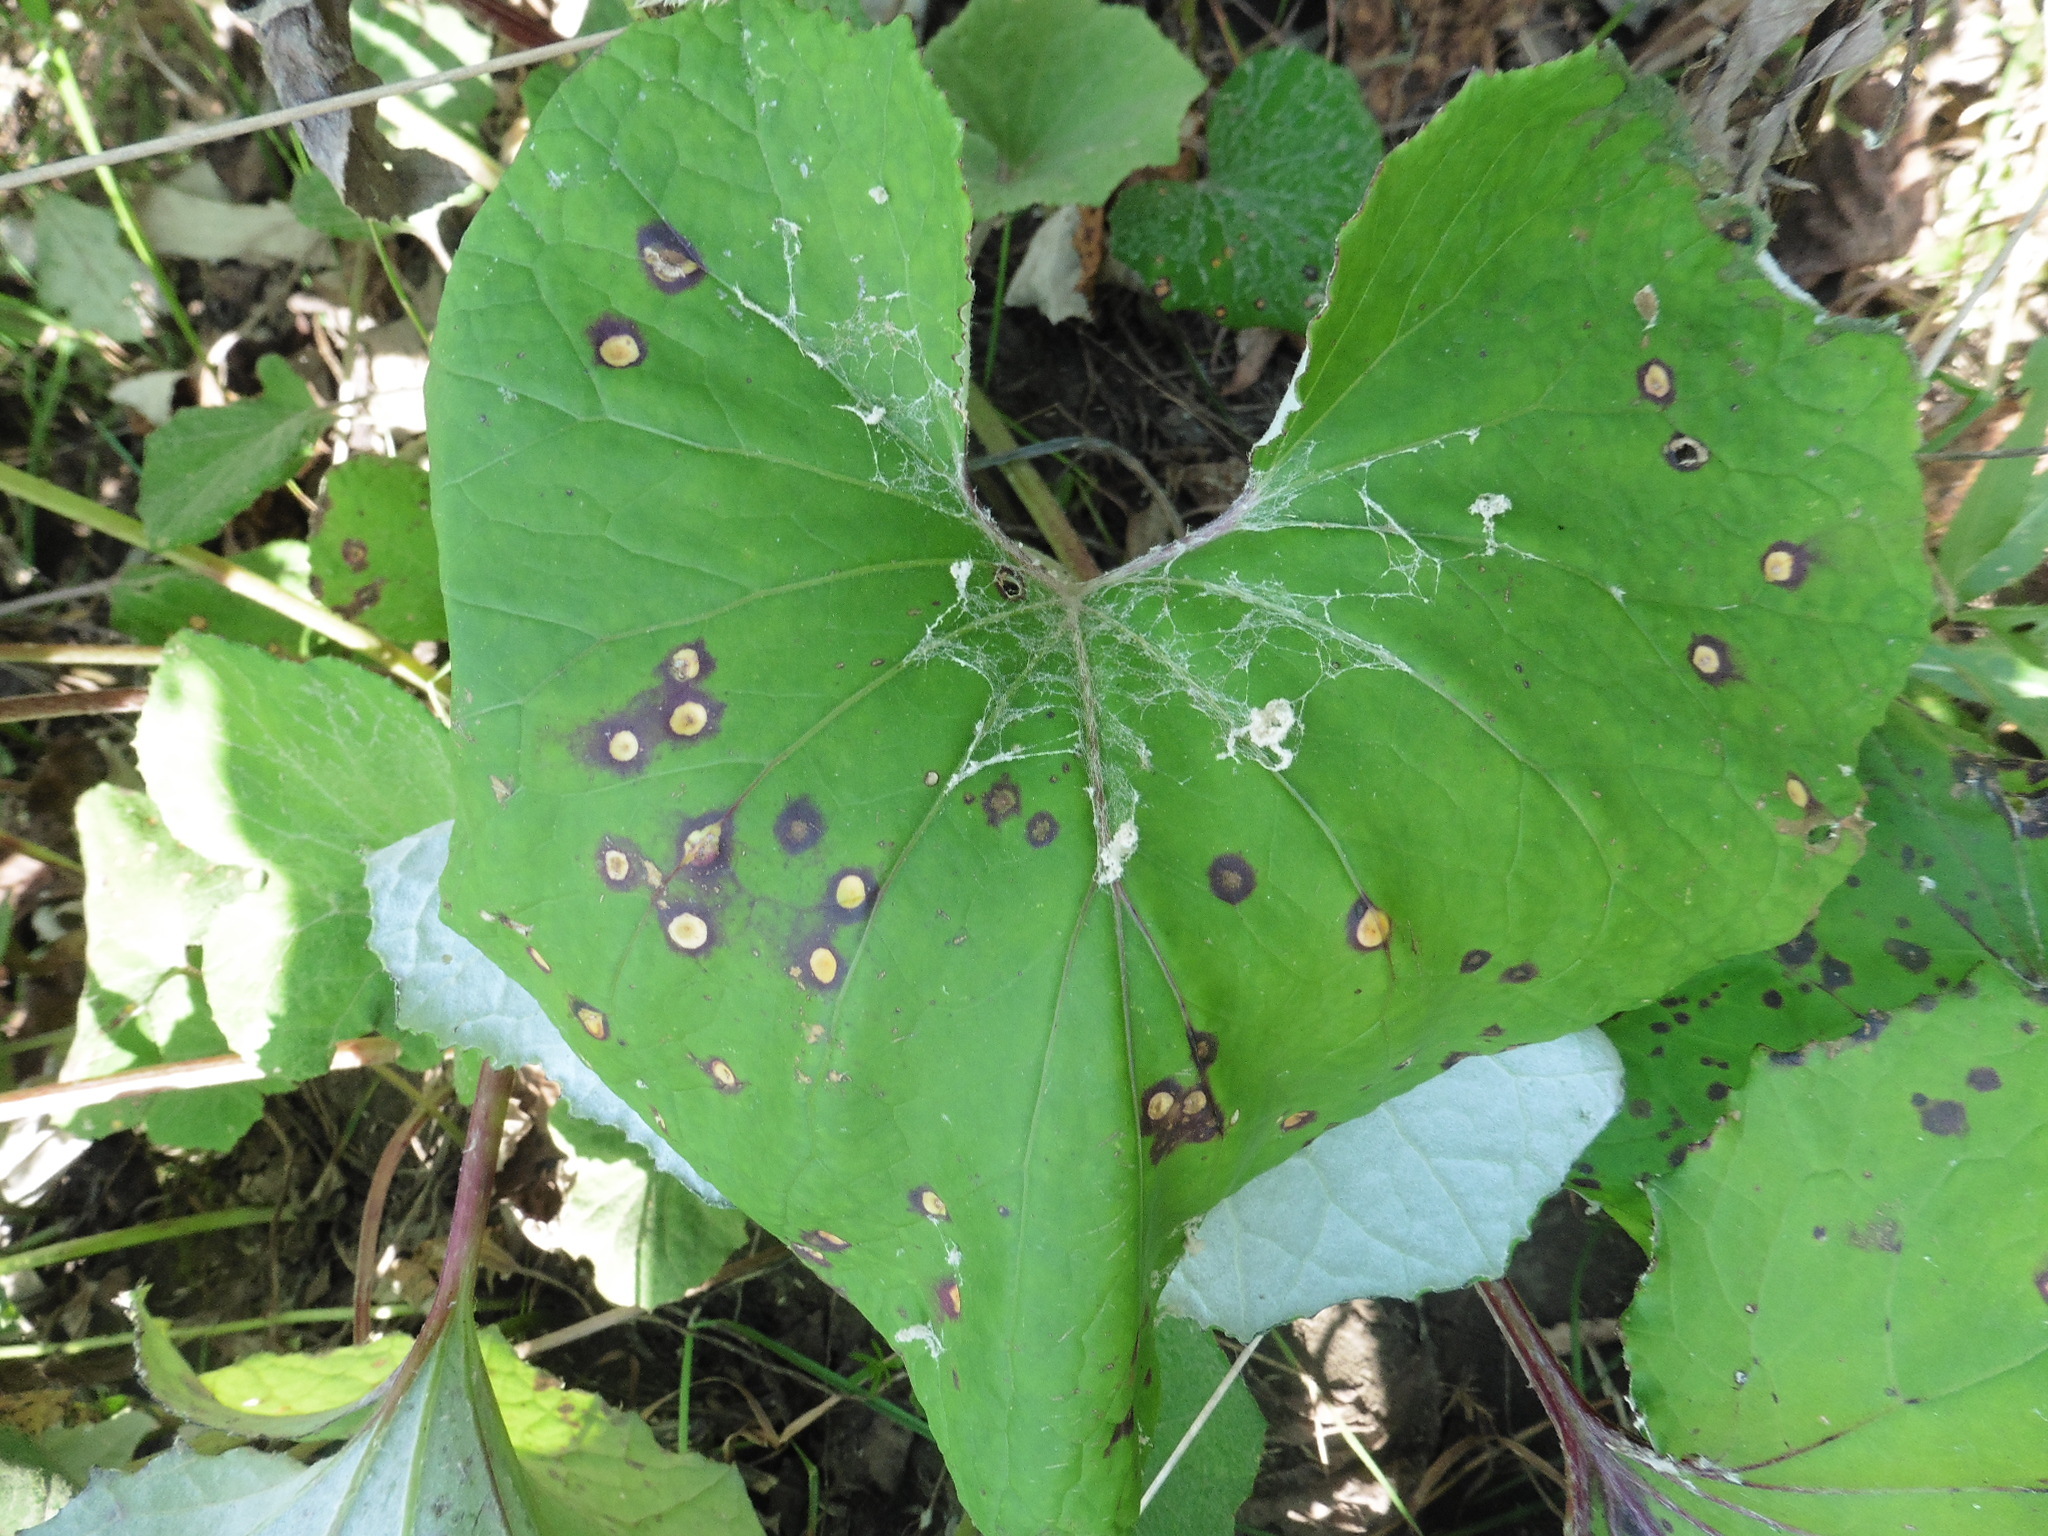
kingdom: Plantae
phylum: Tracheophyta
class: Magnoliopsida
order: Asterales
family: Asteraceae
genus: Tussilago
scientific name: Tussilago farfara
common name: Coltsfoot
